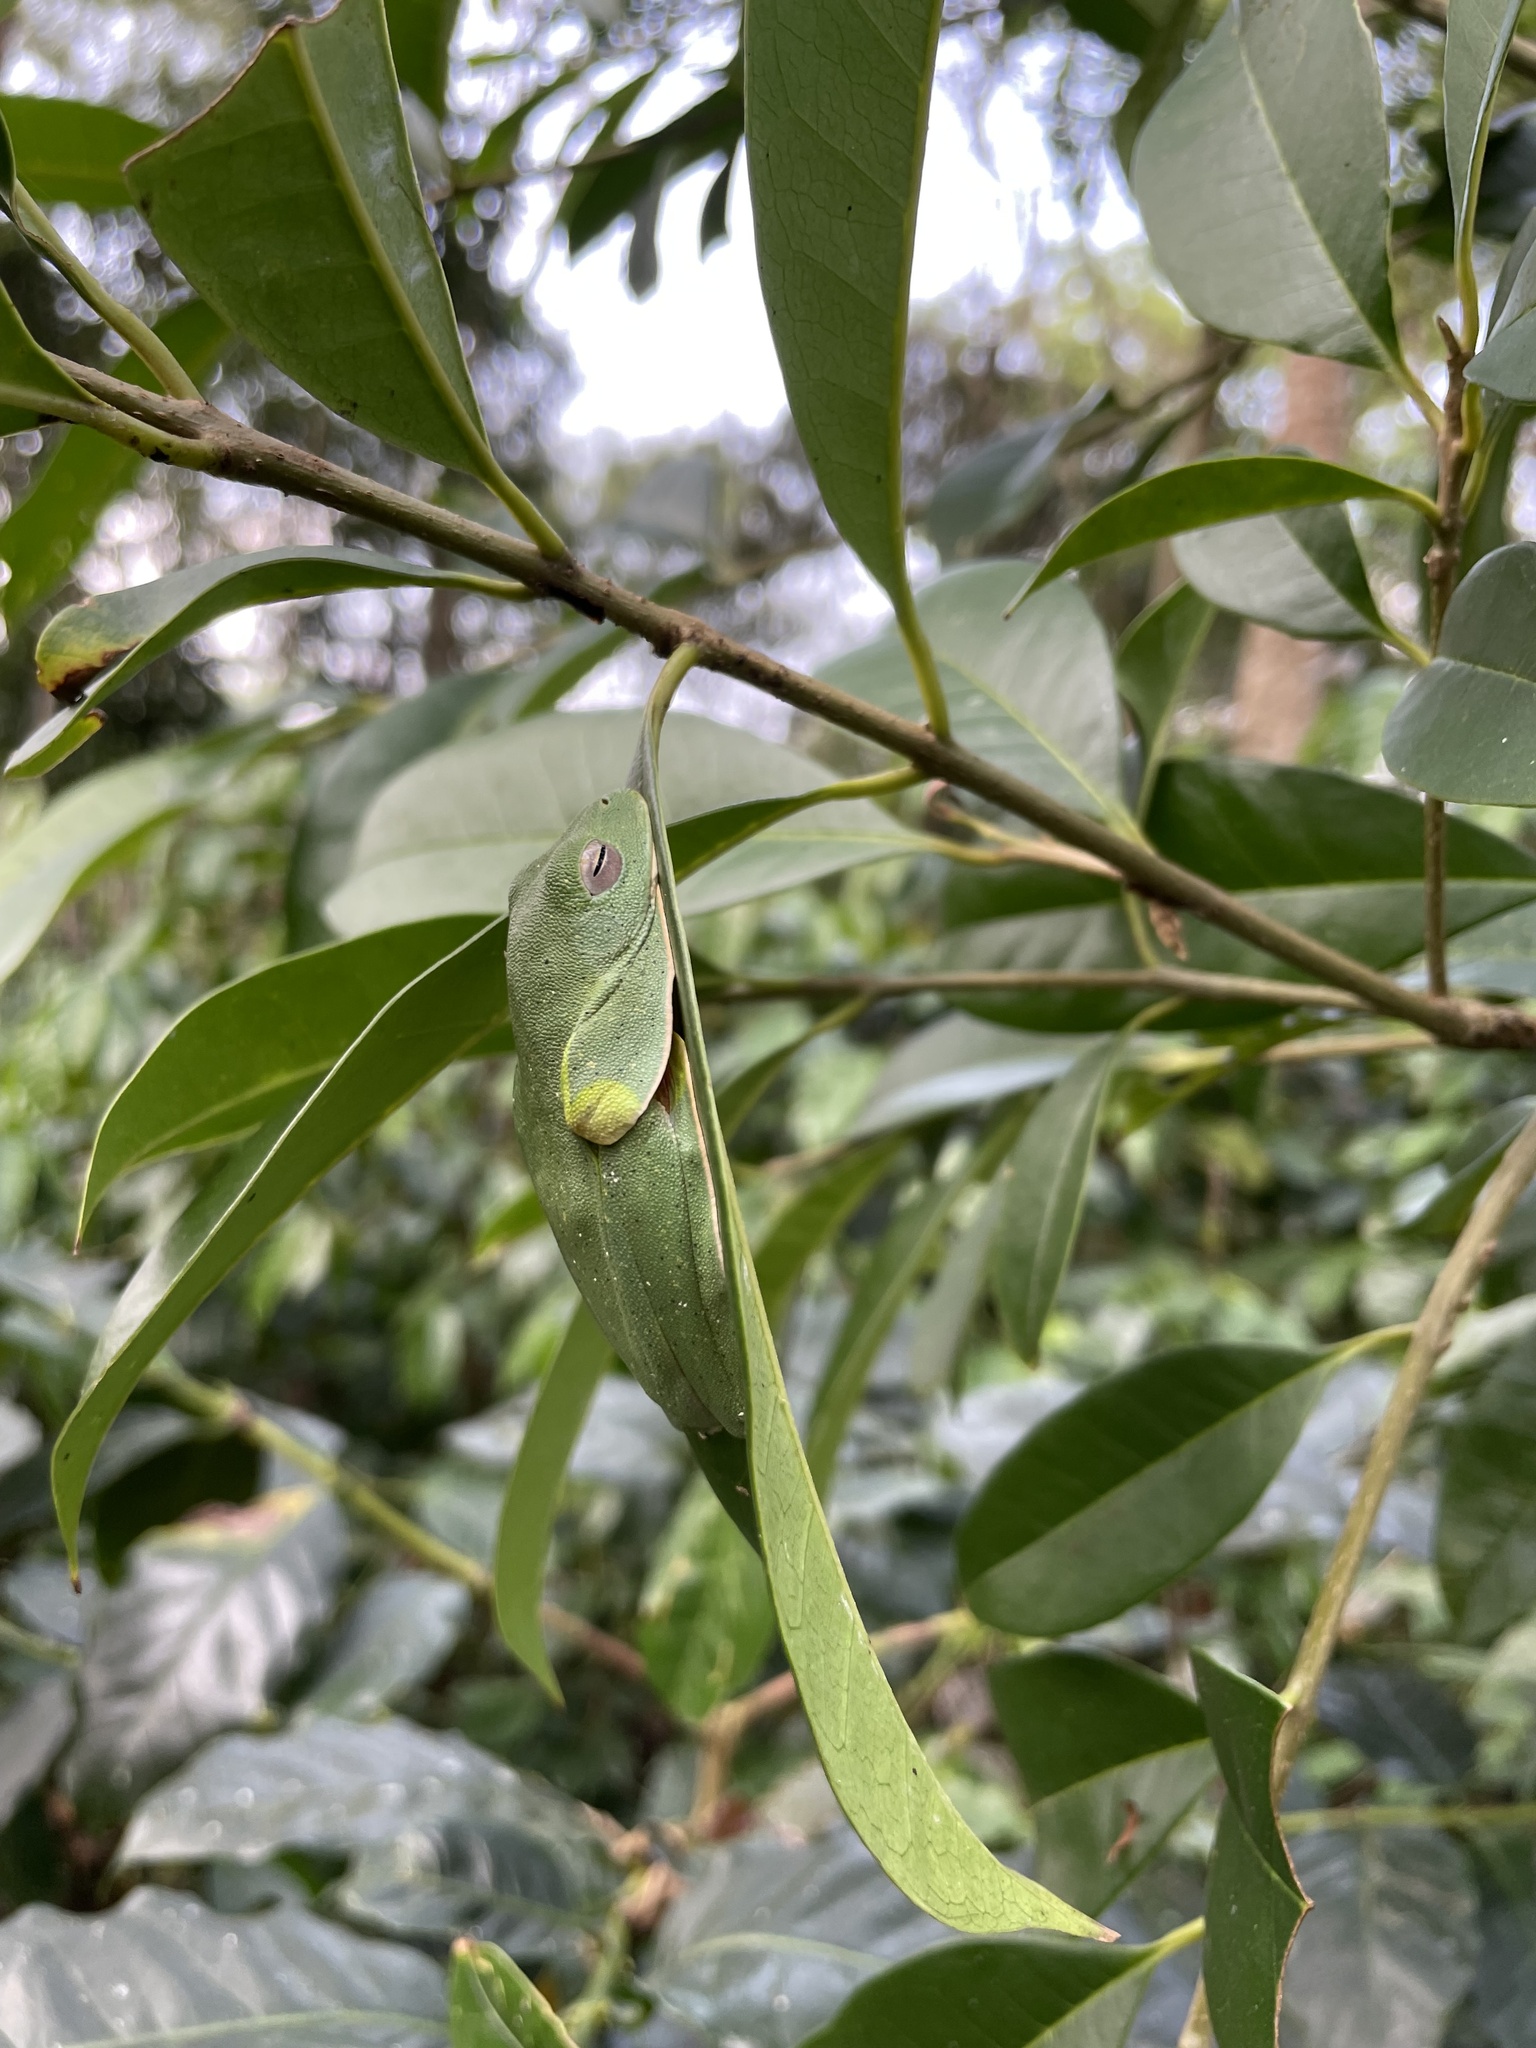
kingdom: Animalia
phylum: Chordata
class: Amphibia
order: Anura
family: Rhacophoridae
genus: Rhacophorus
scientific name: Rhacophorus malabaricus
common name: Malabar gliding frog
